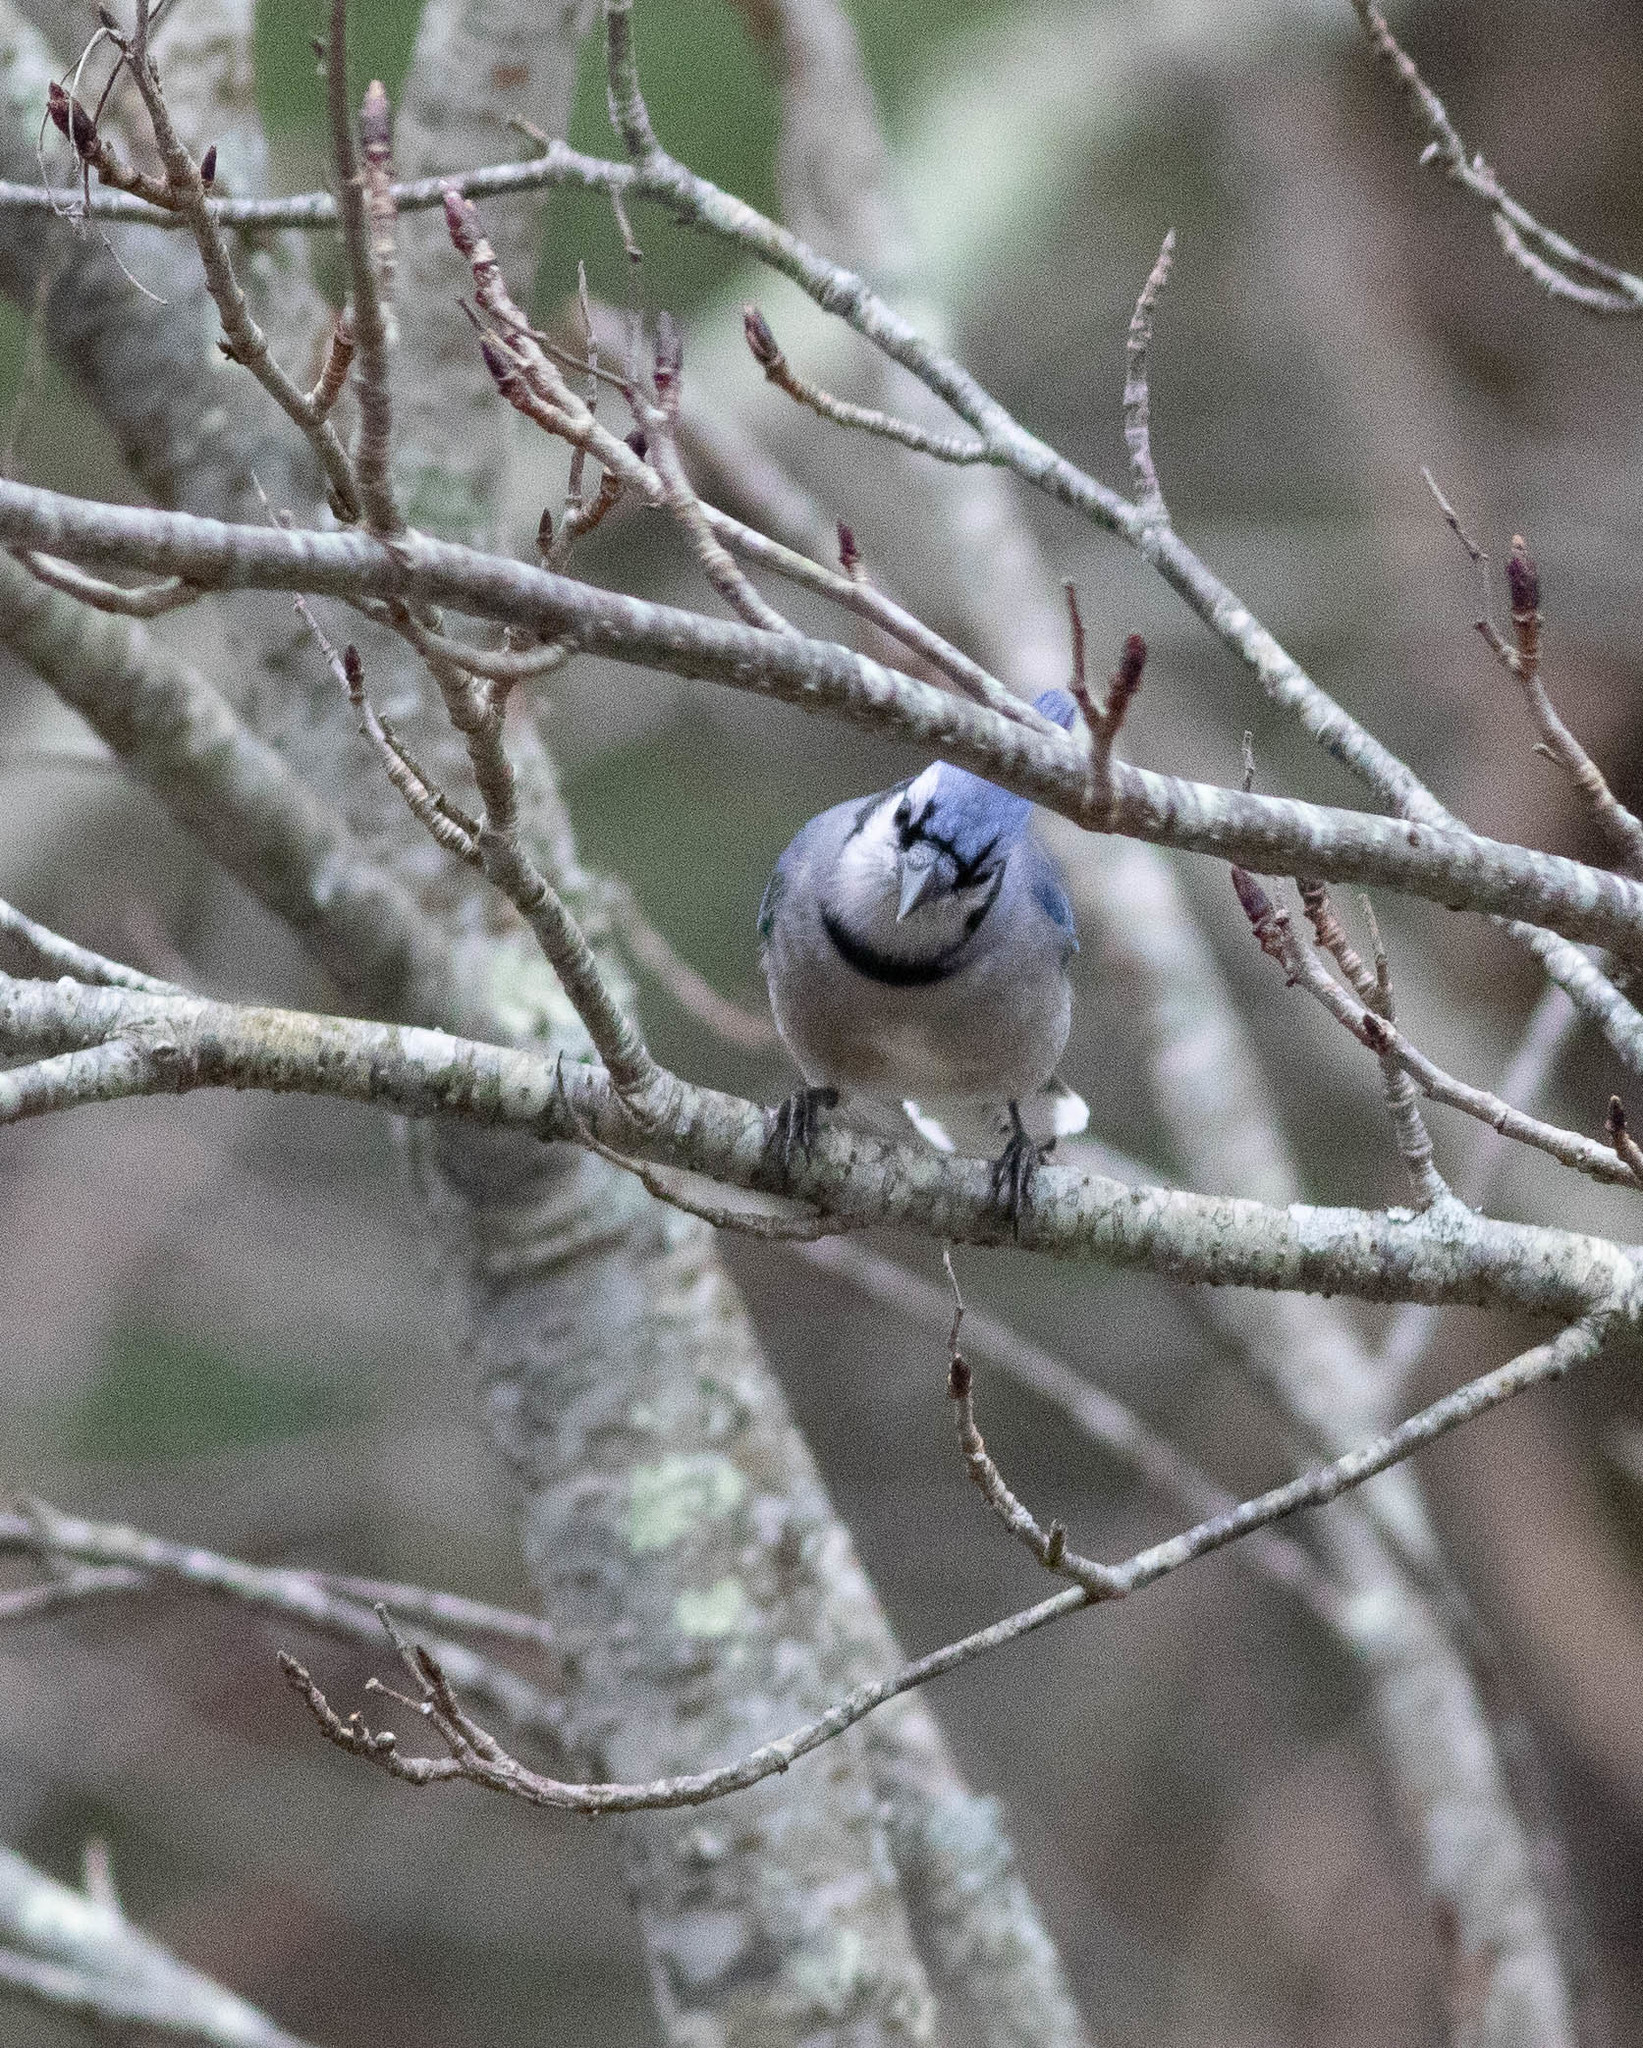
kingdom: Animalia
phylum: Chordata
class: Aves
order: Passeriformes
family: Corvidae
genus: Cyanocitta
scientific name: Cyanocitta cristata
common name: Blue jay
